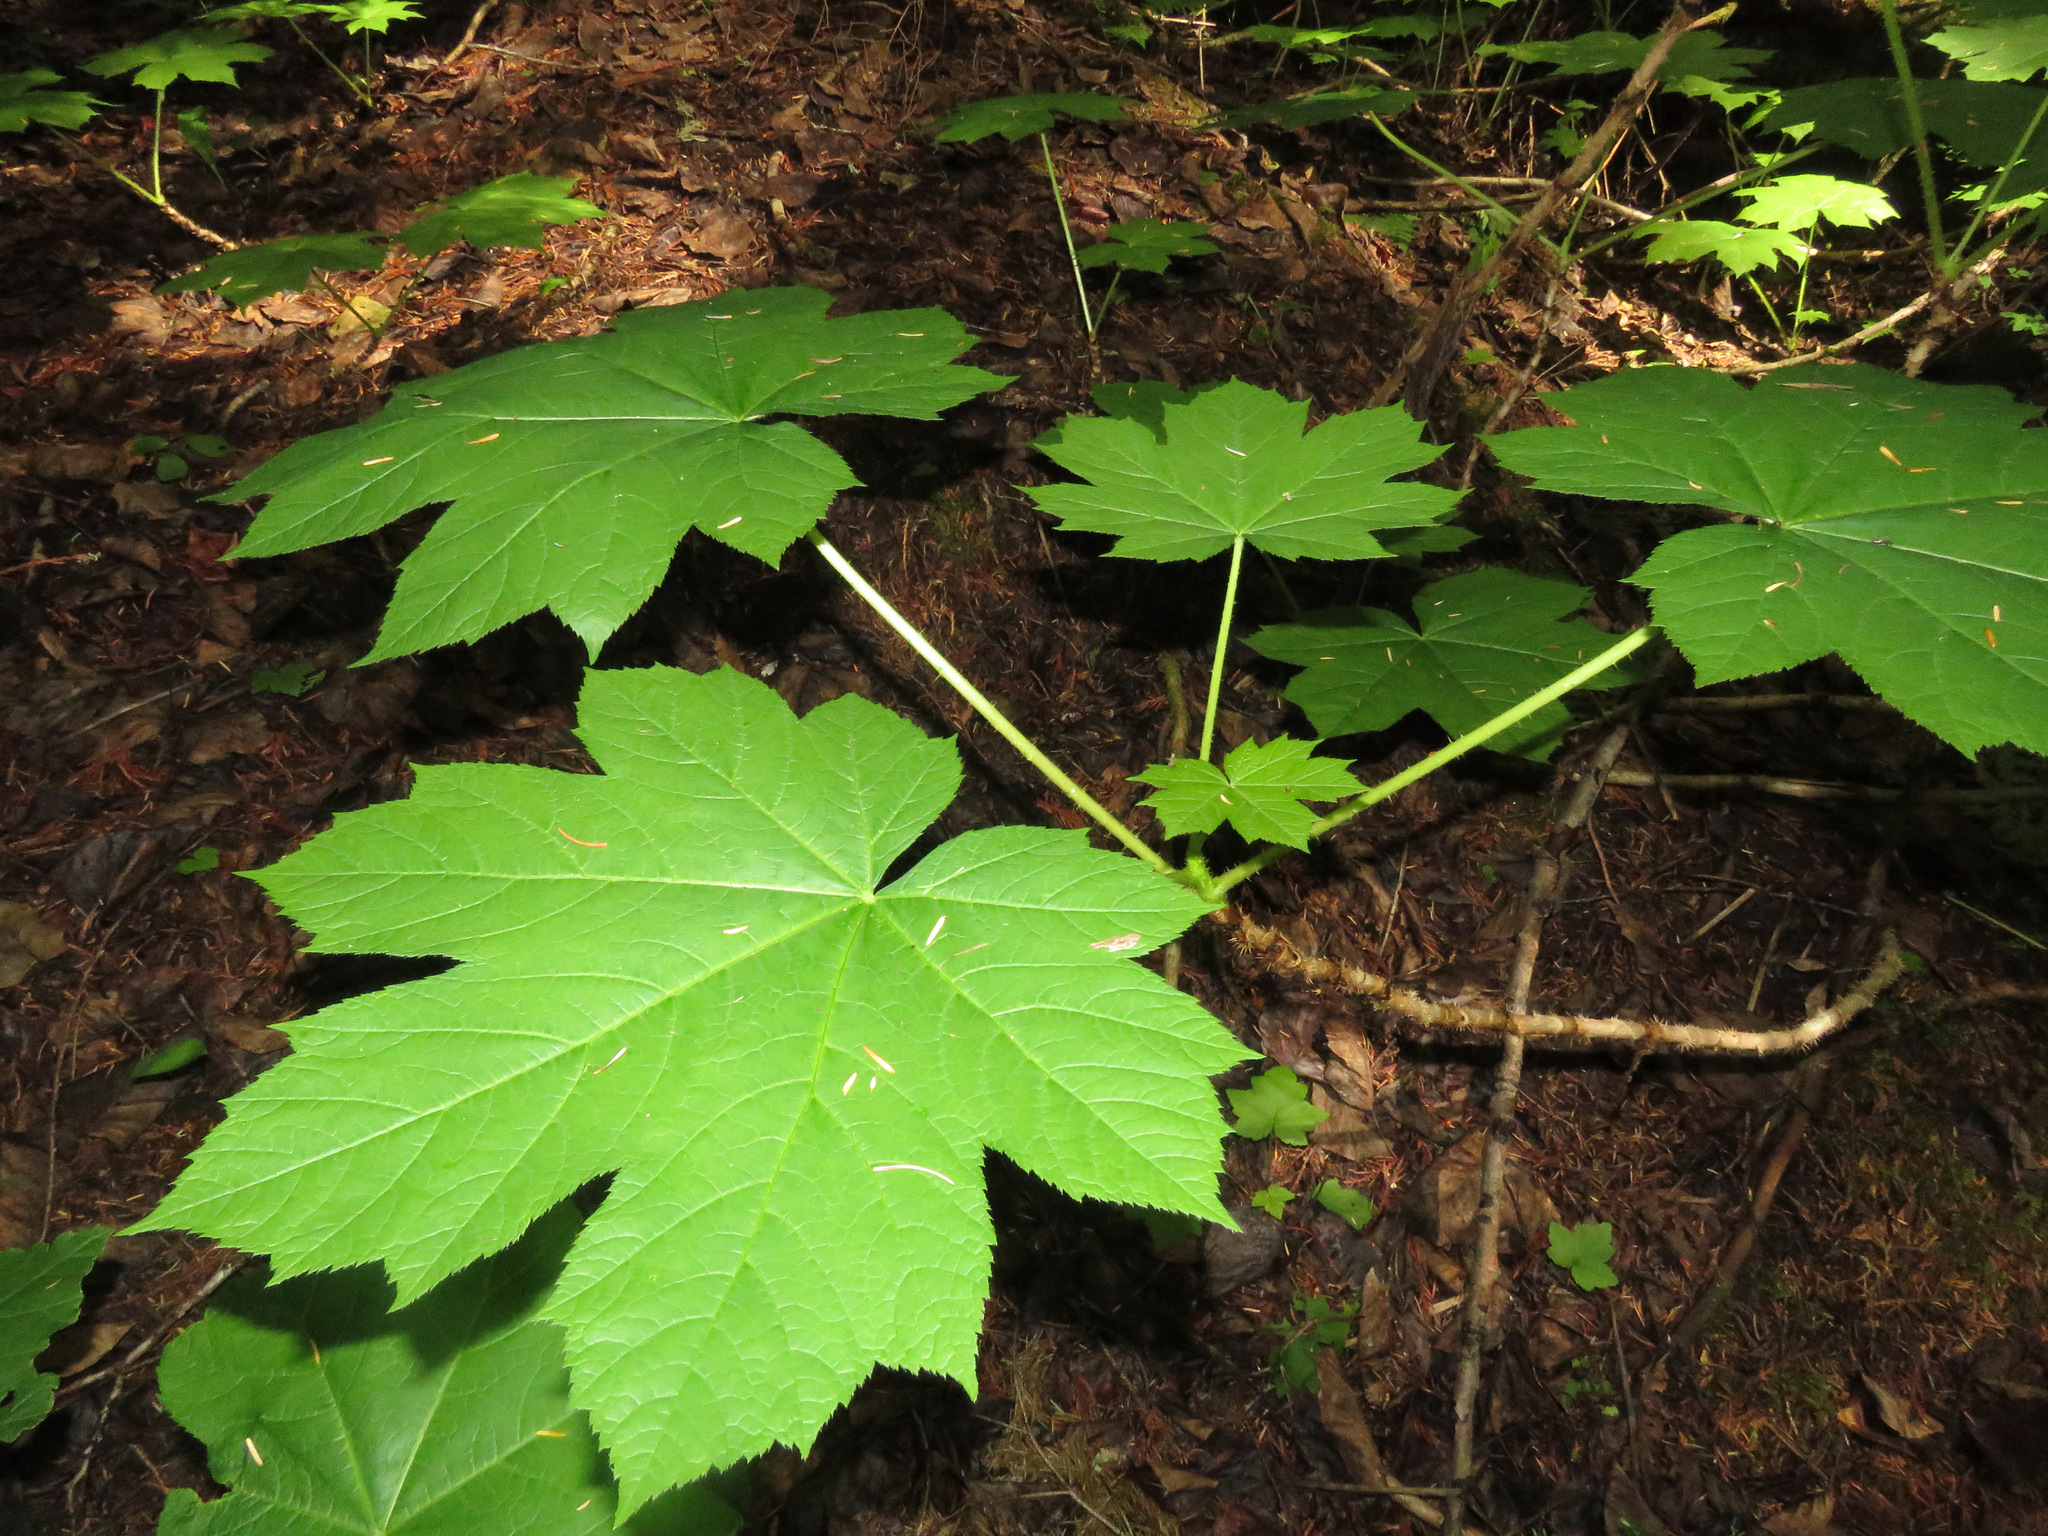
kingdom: Plantae
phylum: Tracheophyta
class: Magnoliopsida
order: Apiales
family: Araliaceae
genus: Oplopanax
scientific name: Oplopanax horridus
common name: Devil's walking-stick
